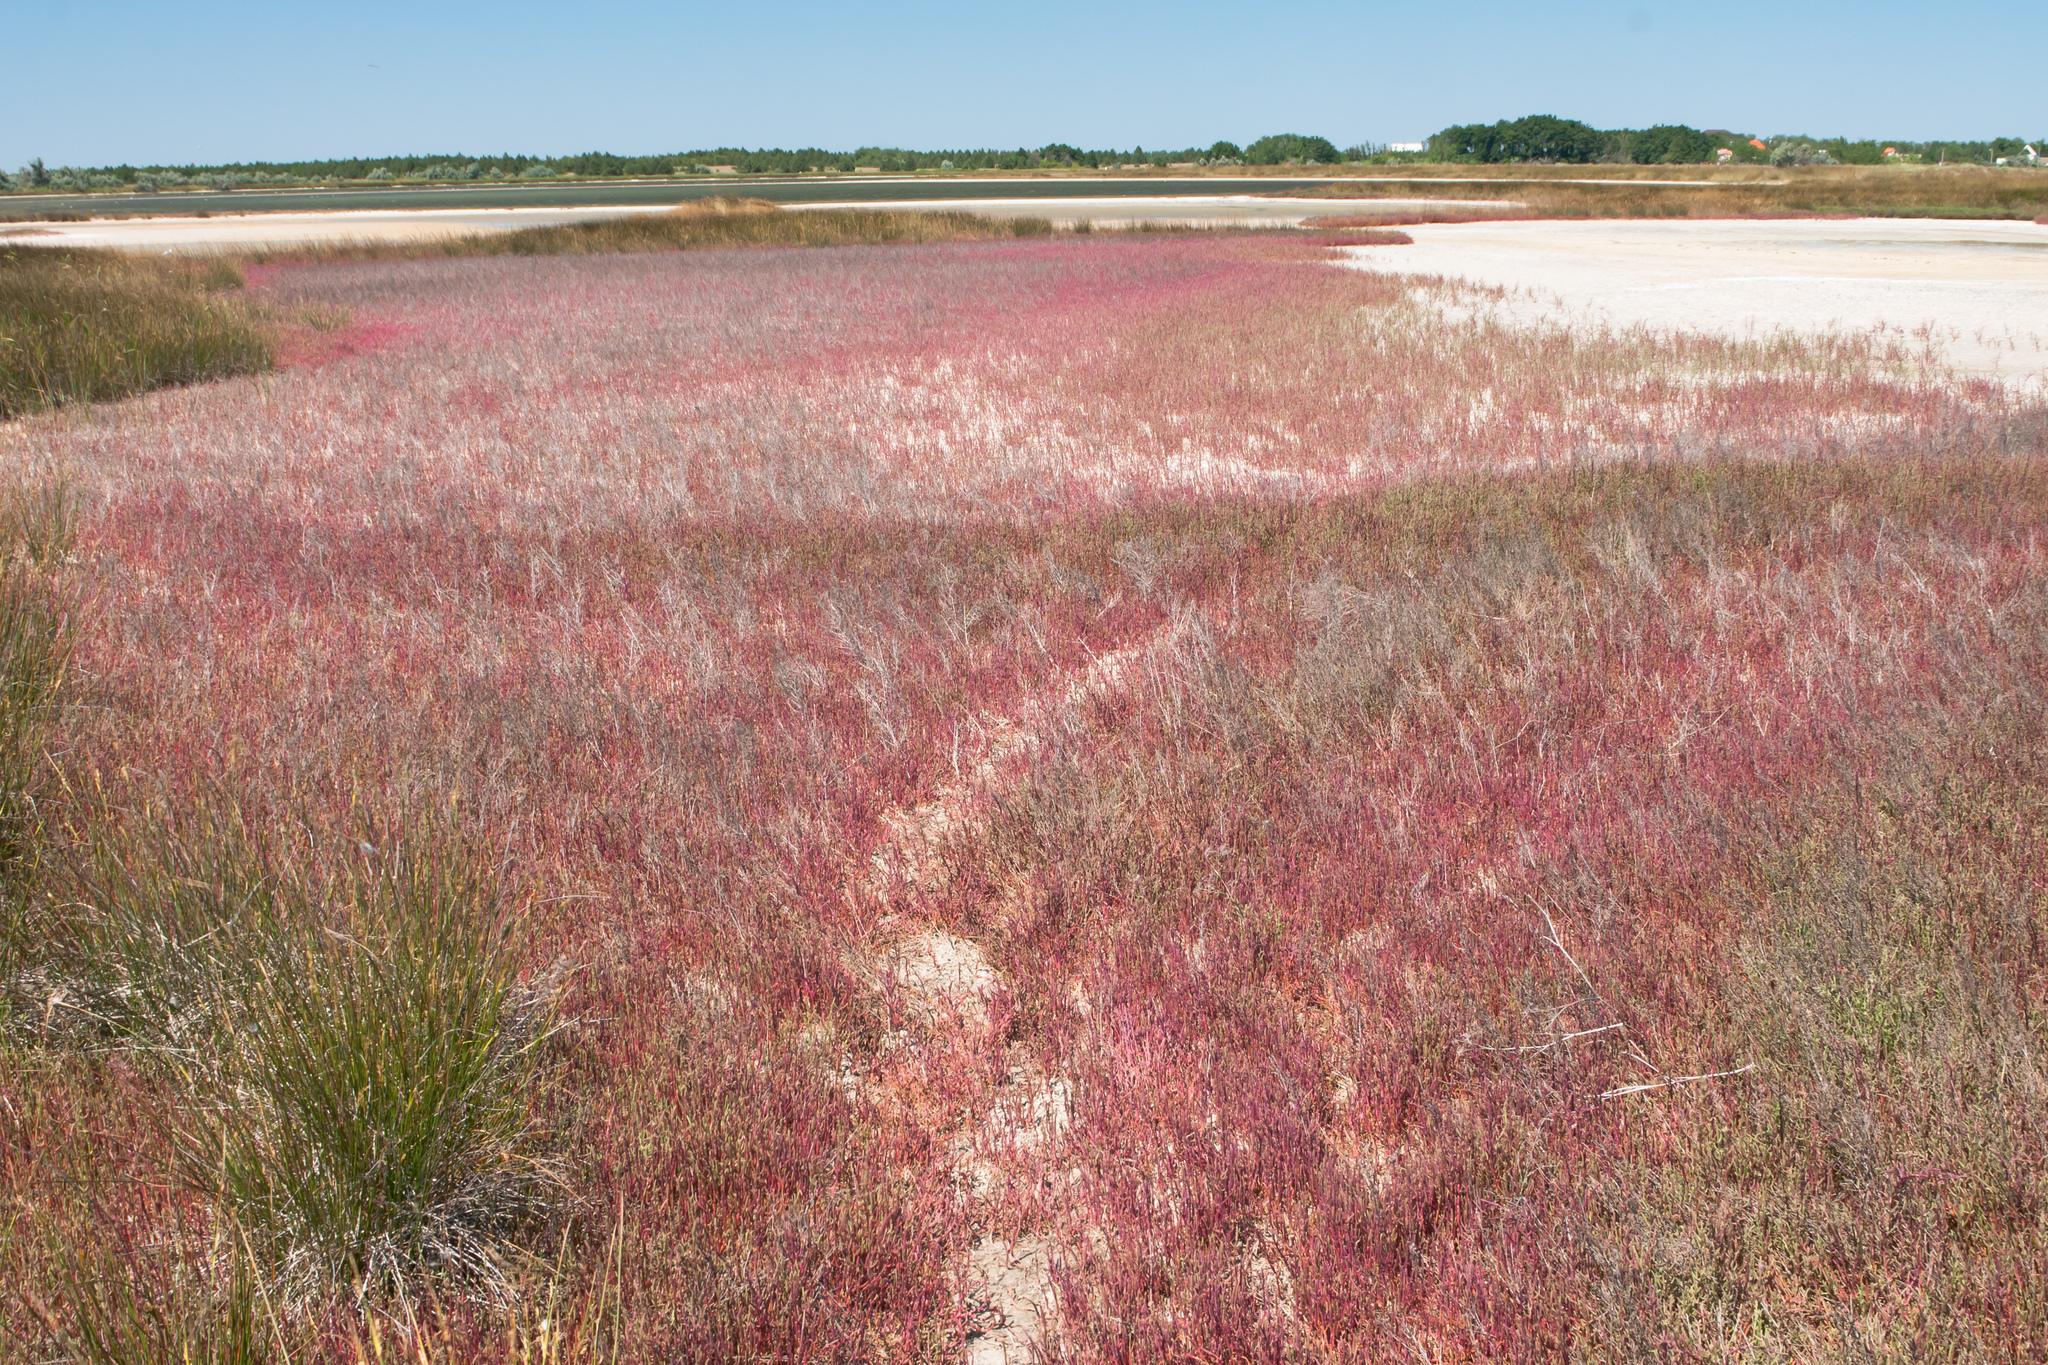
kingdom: Plantae
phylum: Tracheophyta
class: Magnoliopsida
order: Caryophyllales
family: Amaranthaceae
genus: Salicornia
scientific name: Salicornia perennans
